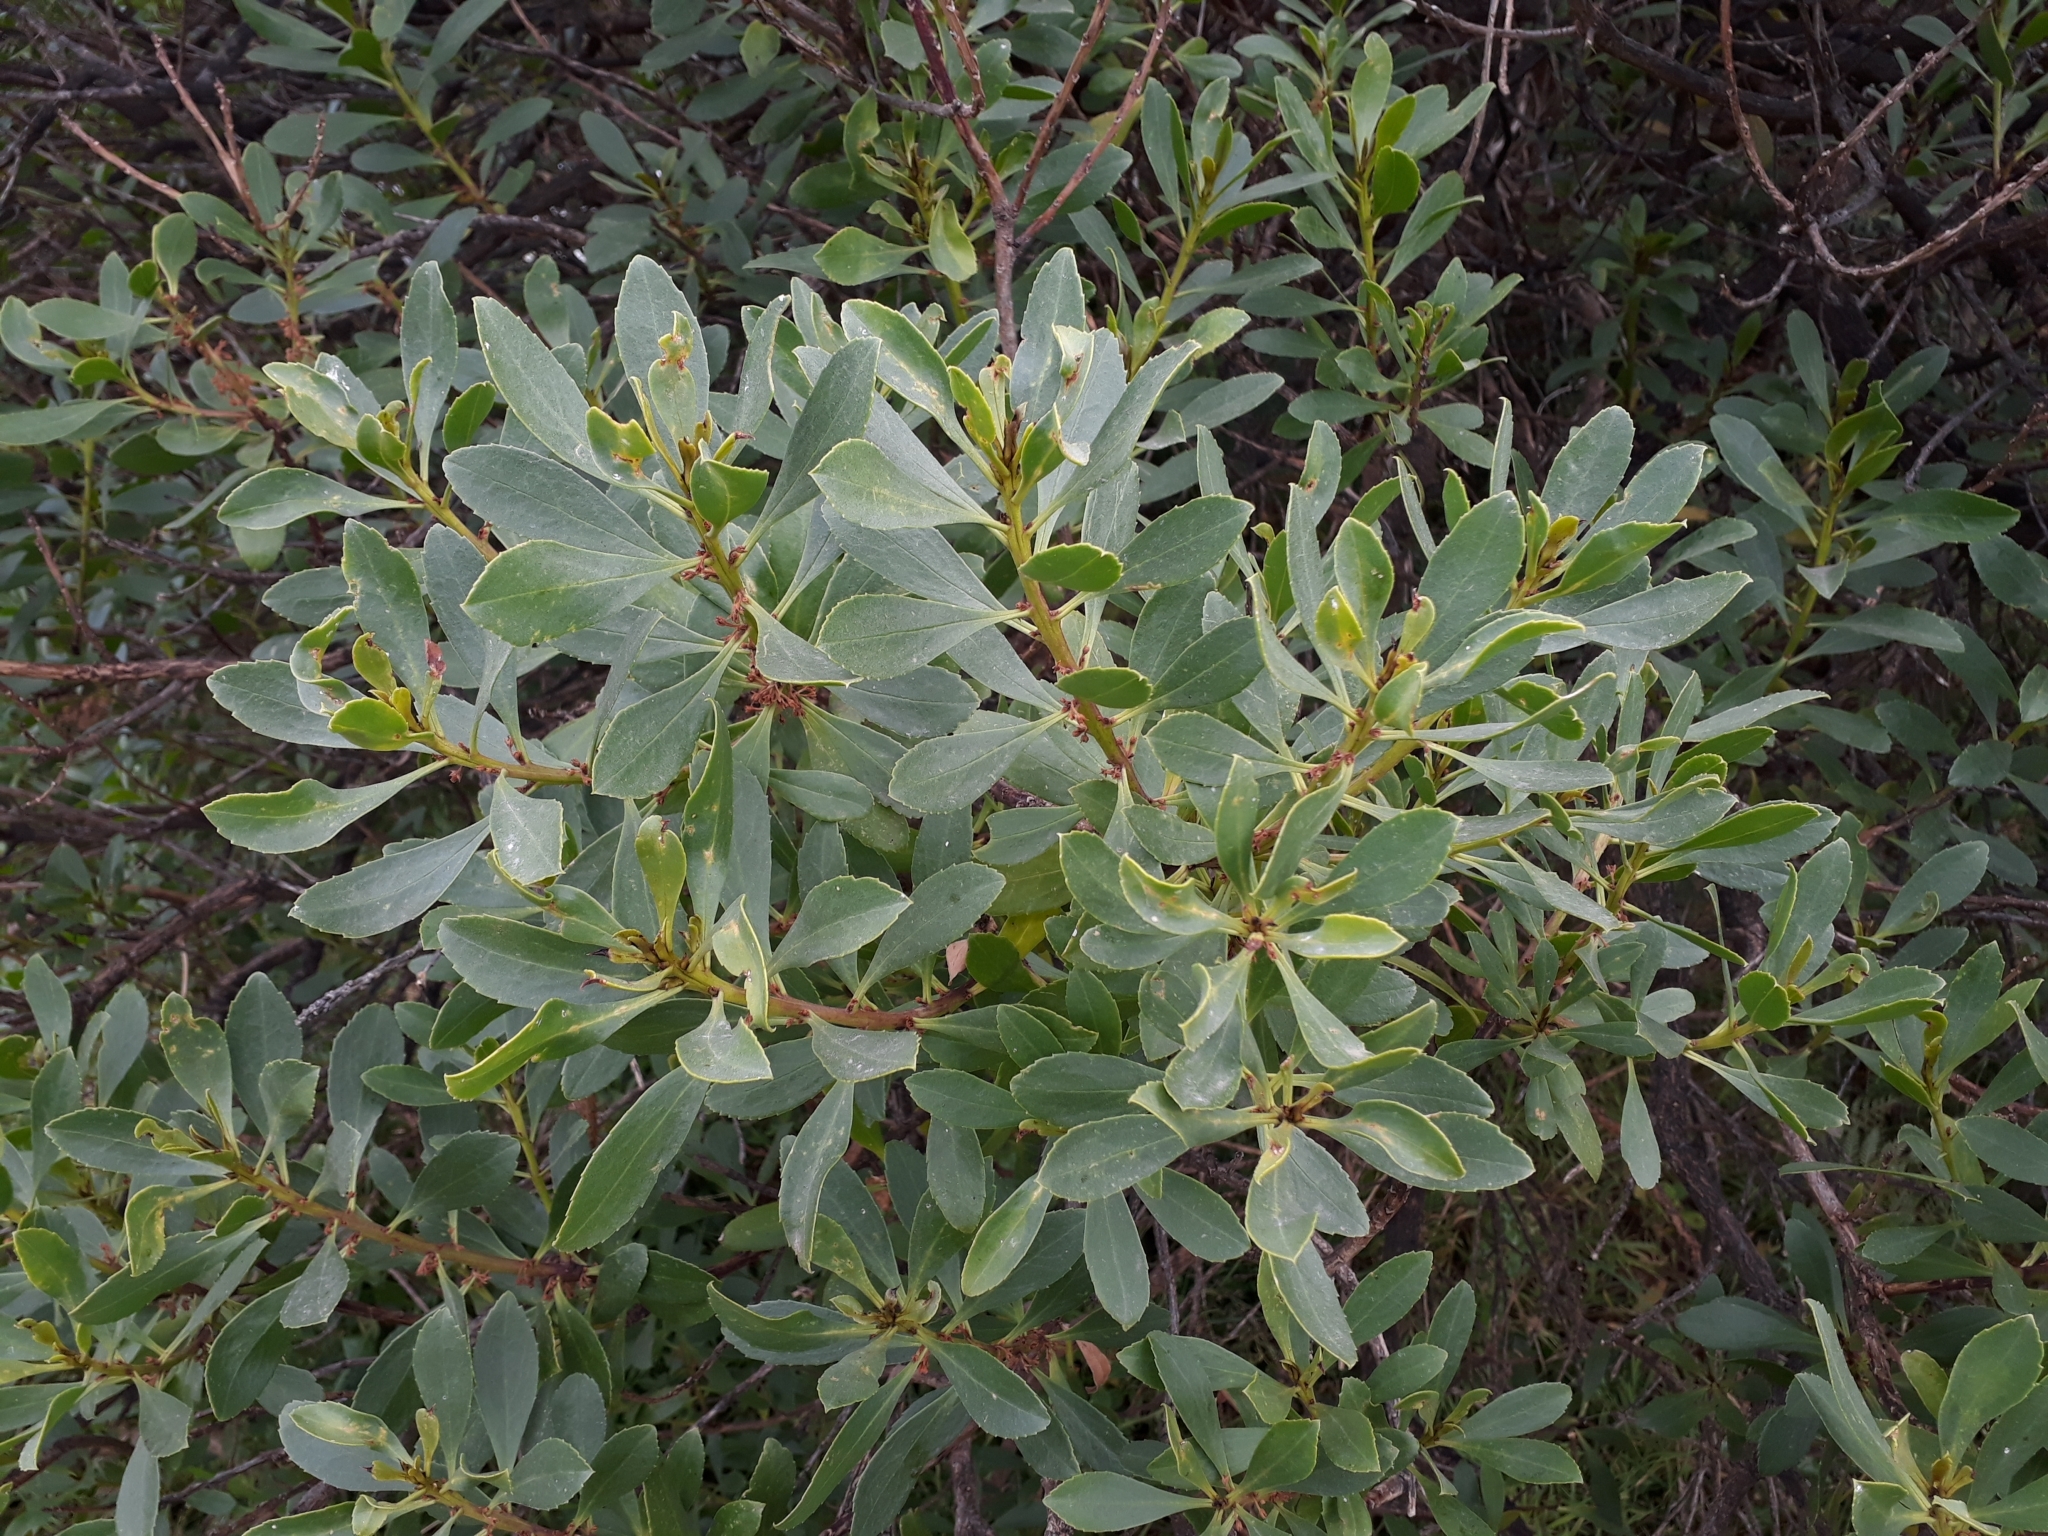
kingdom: Plantae
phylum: Tracheophyta
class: Magnoliopsida
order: Lamiales
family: Scrophulariaceae
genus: Myoporum
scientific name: Myoporum insulare
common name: Common boobialla
